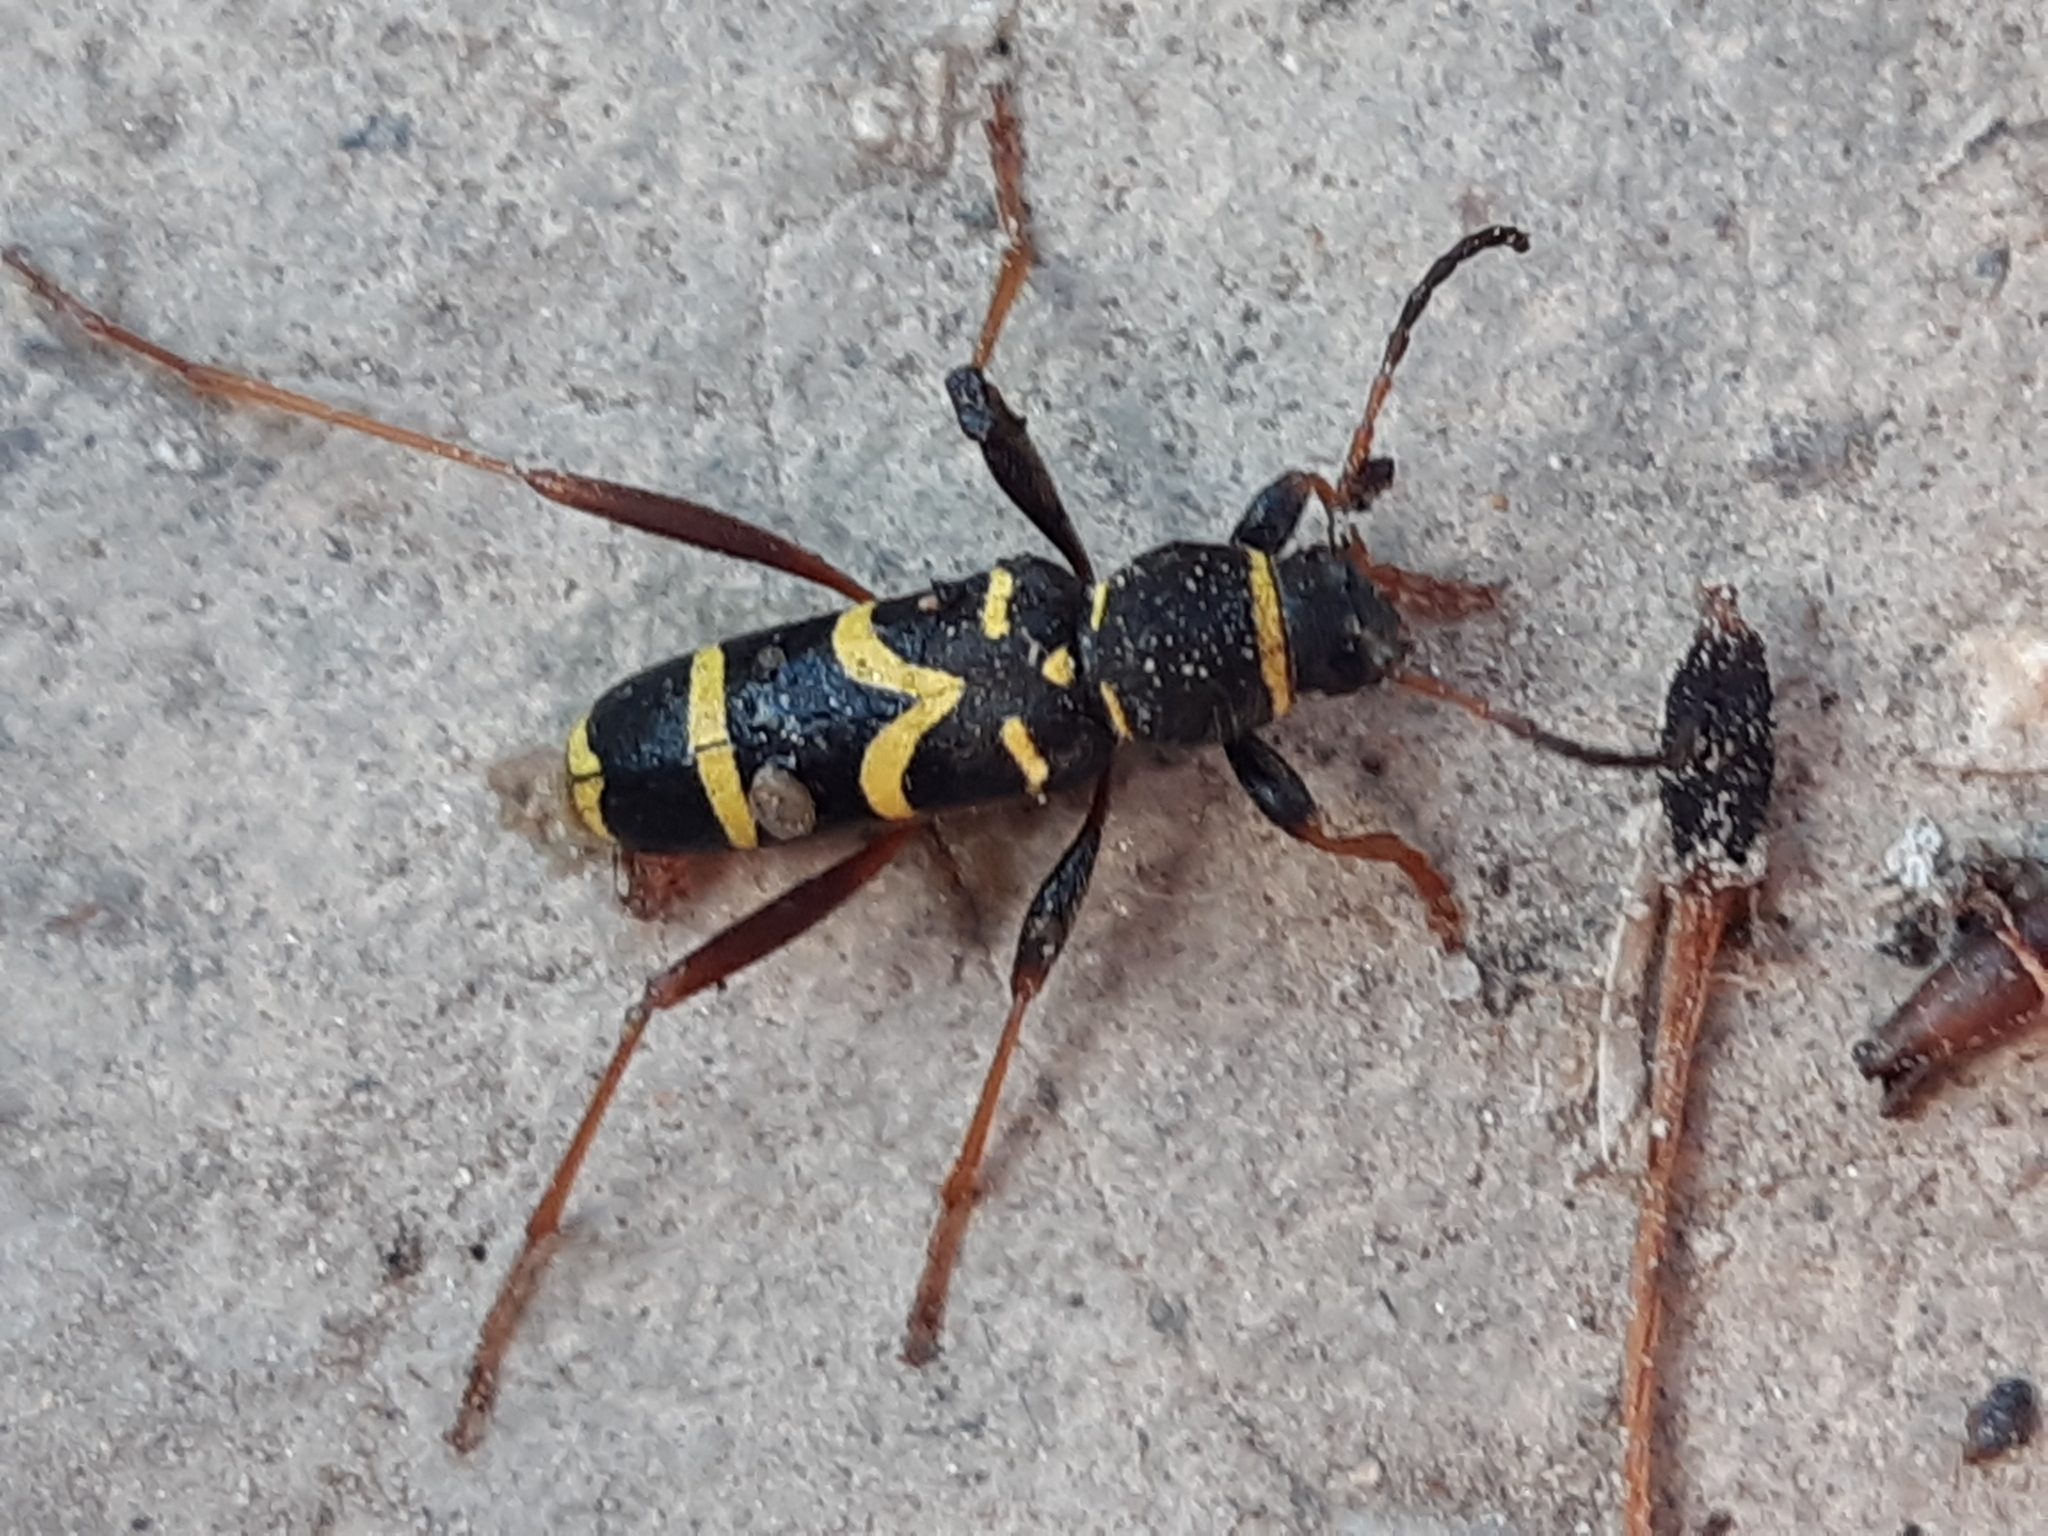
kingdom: Animalia
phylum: Arthropoda
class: Insecta
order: Coleoptera
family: Cerambycidae
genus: Clytus
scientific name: Clytus arietis
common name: Wasp beetle
